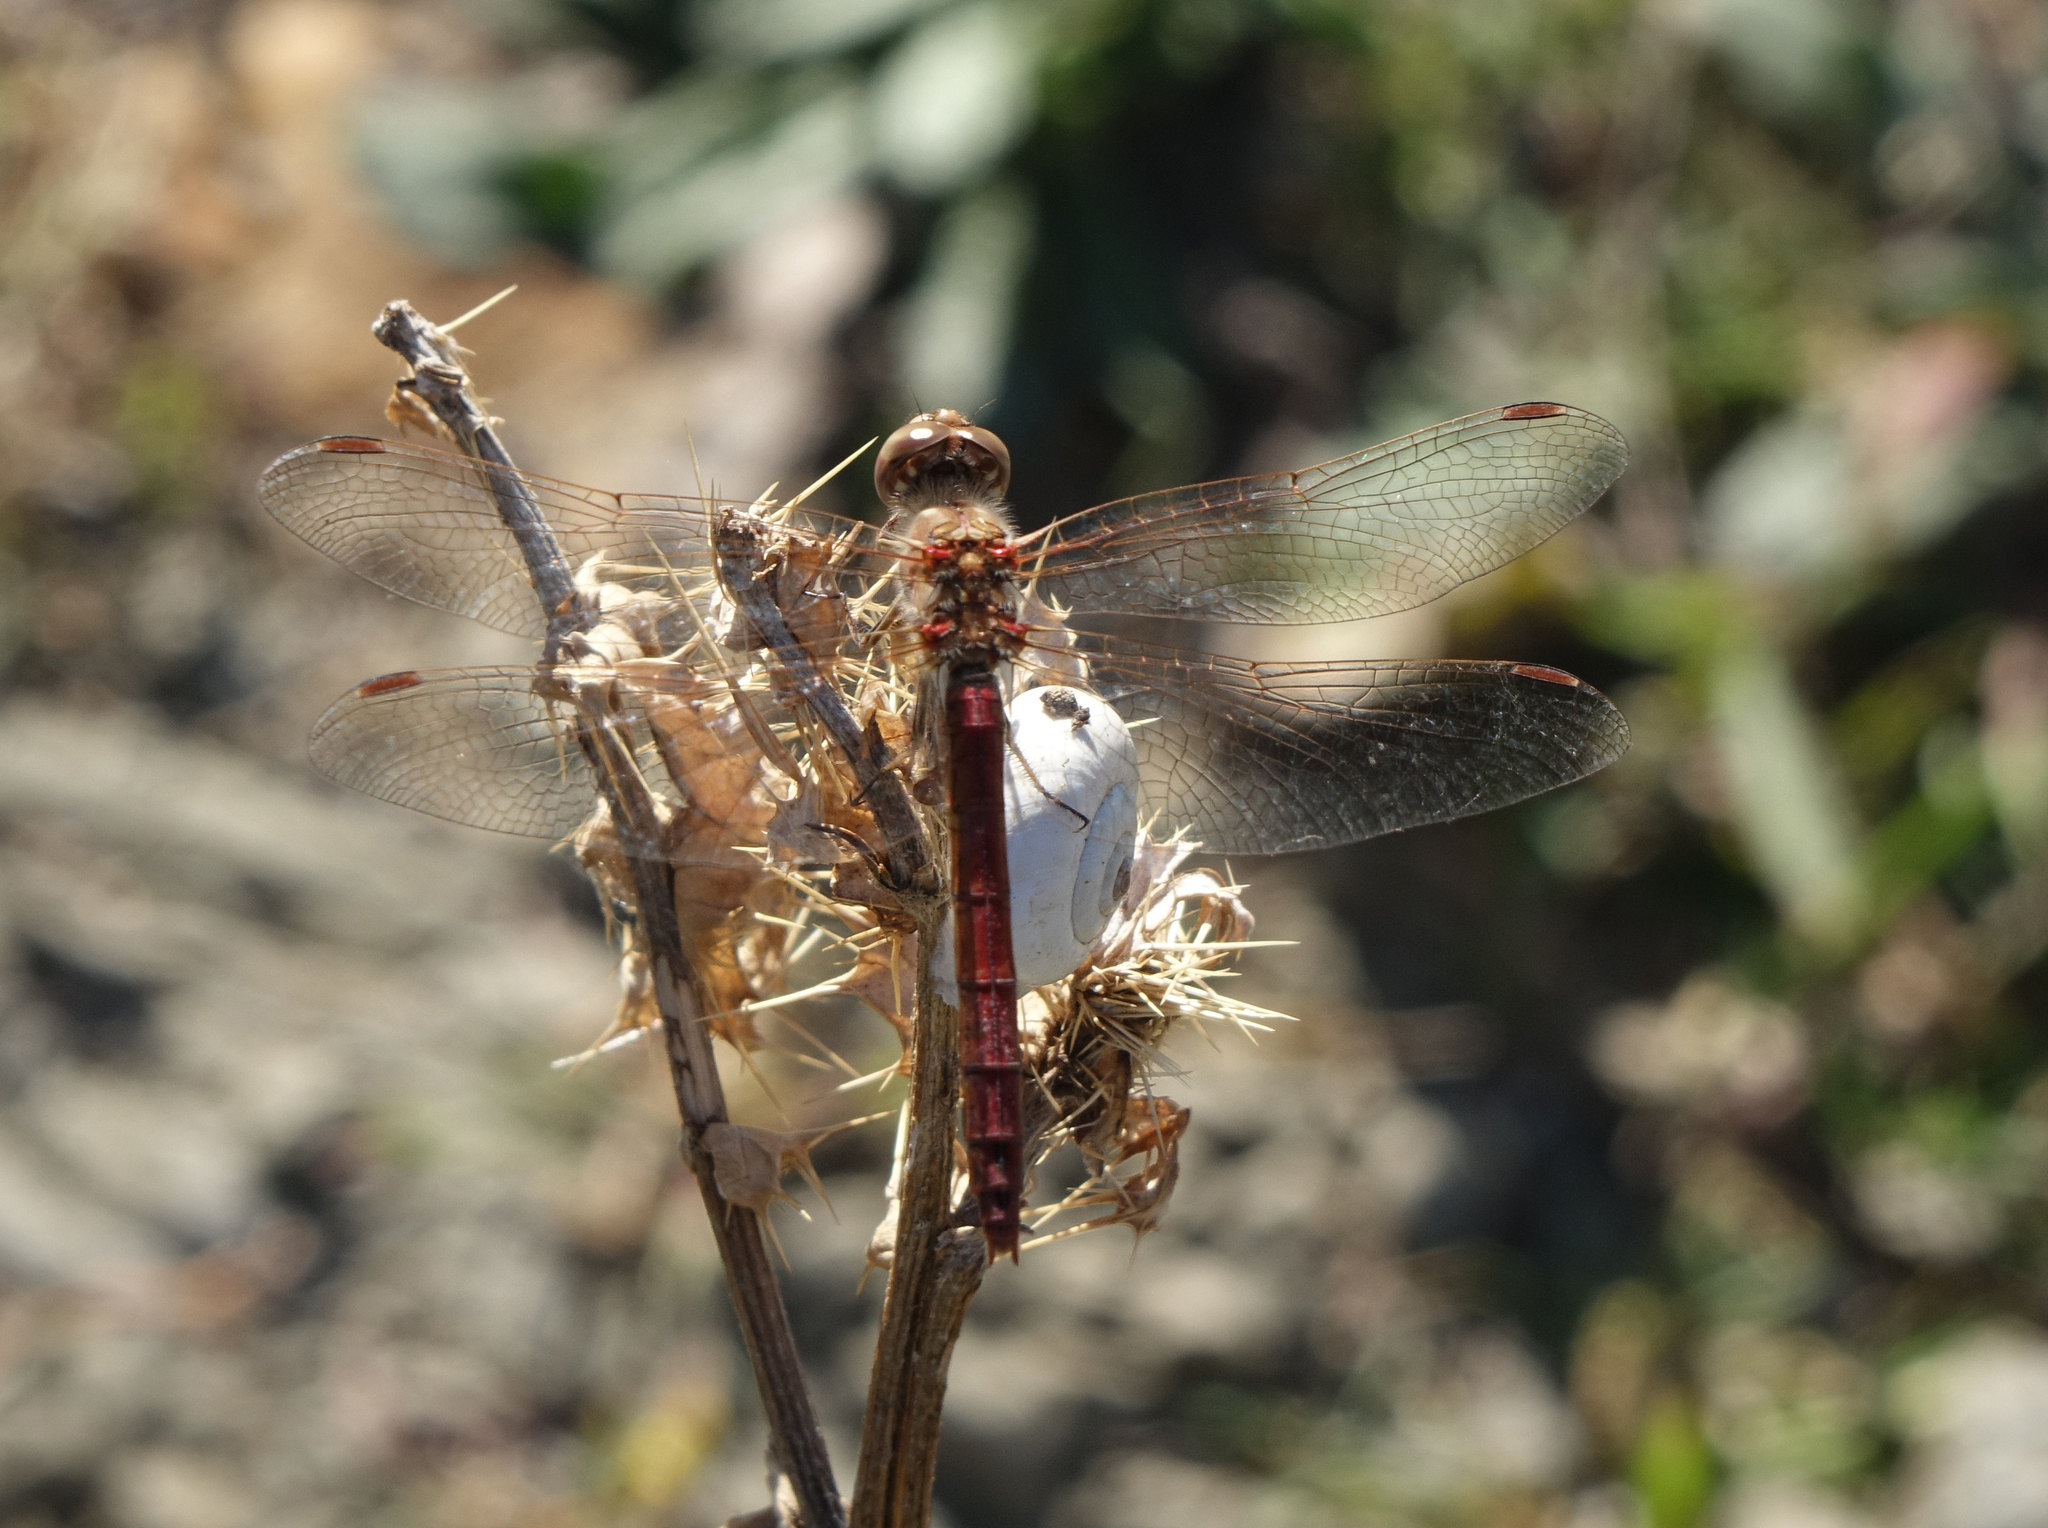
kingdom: Animalia
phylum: Arthropoda
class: Insecta
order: Odonata
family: Libellulidae
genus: Sympetrum
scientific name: Sympetrum vulgatum
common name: Vagrant darter
